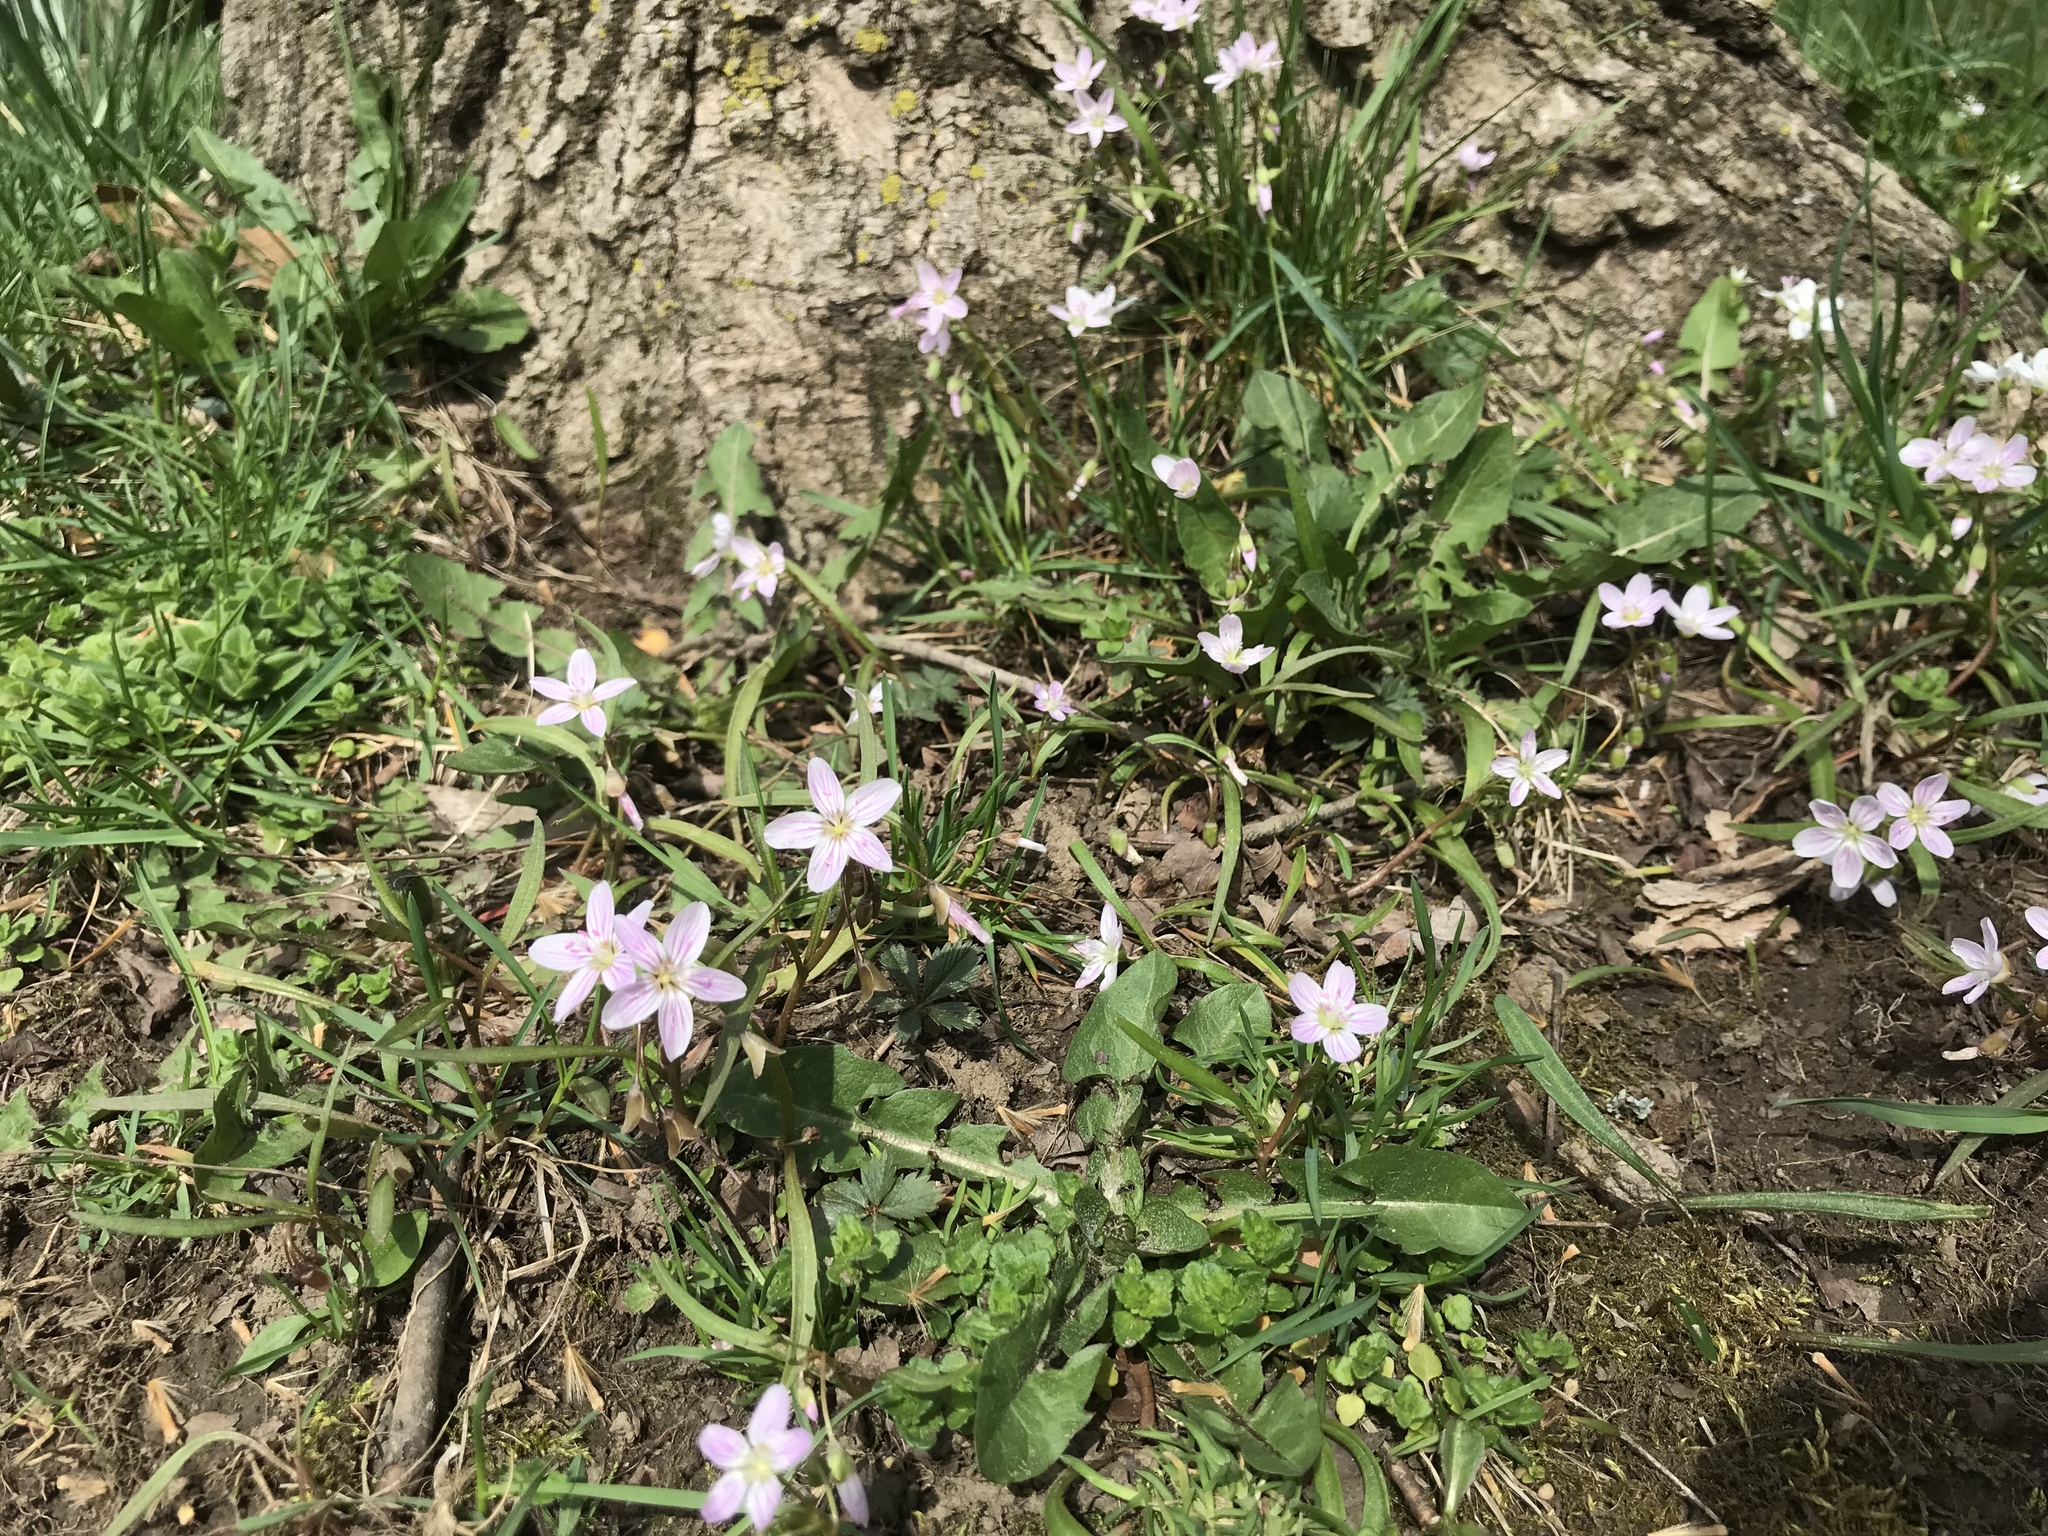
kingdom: Plantae
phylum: Tracheophyta
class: Magnoliopsida
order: Caryophyllales
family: Montiaceae
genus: Claytonia
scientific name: Claytonia virginica
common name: Virginia springbeauty
